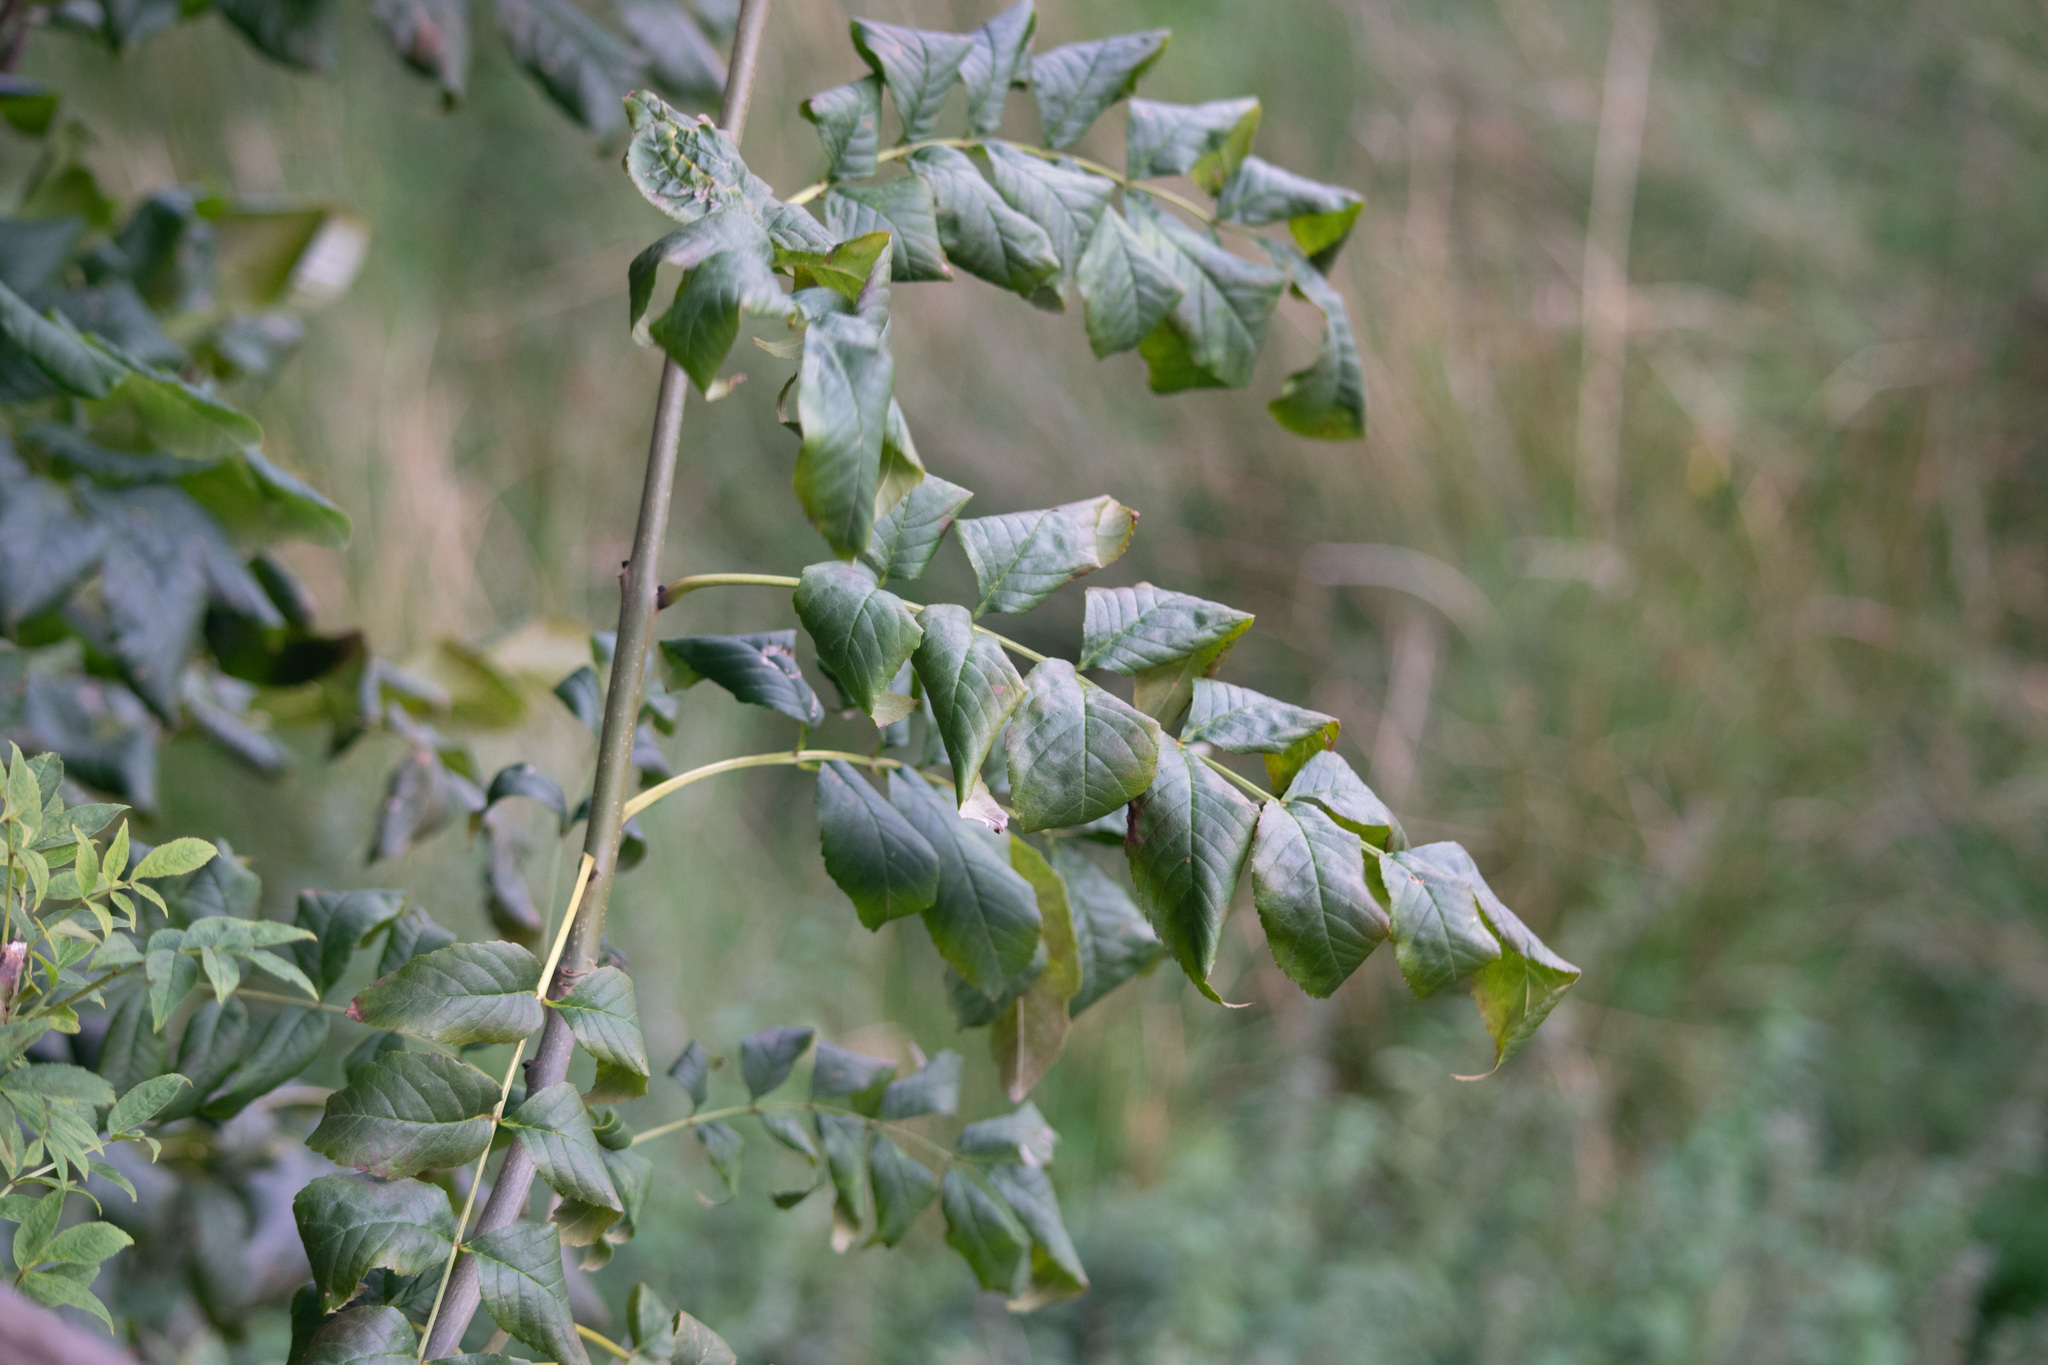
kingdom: Plantae
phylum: Tracheophyta
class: Magnoliopsida
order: Lamiales
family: Oleaceae
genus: Fraxinus
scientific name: Fraxinus excelsior
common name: European ash
